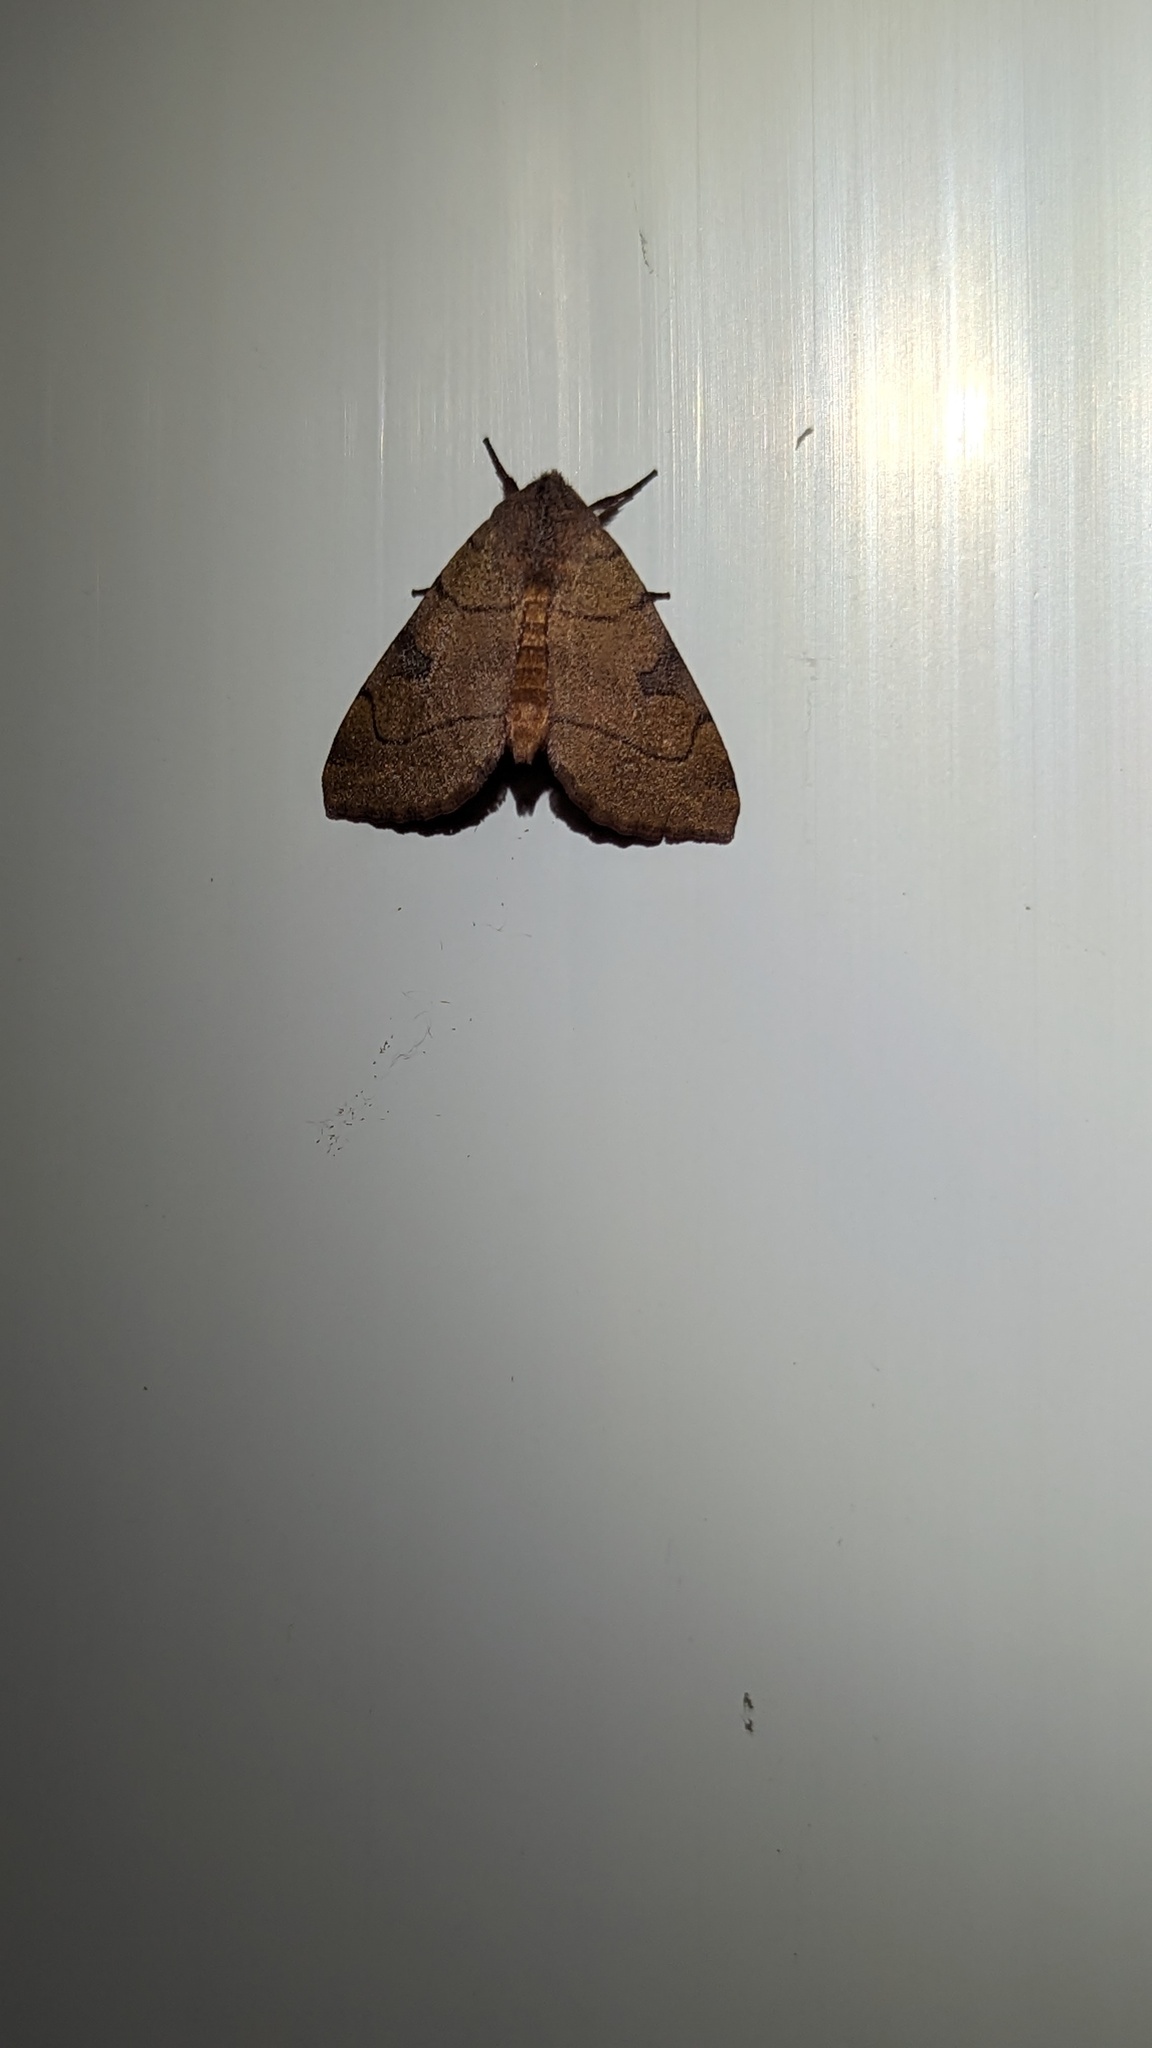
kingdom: Animalia
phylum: Arthropoda
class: Insecta
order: Lepidoptera
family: Noctuidae
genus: Choephora
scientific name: Choephora fungorum
